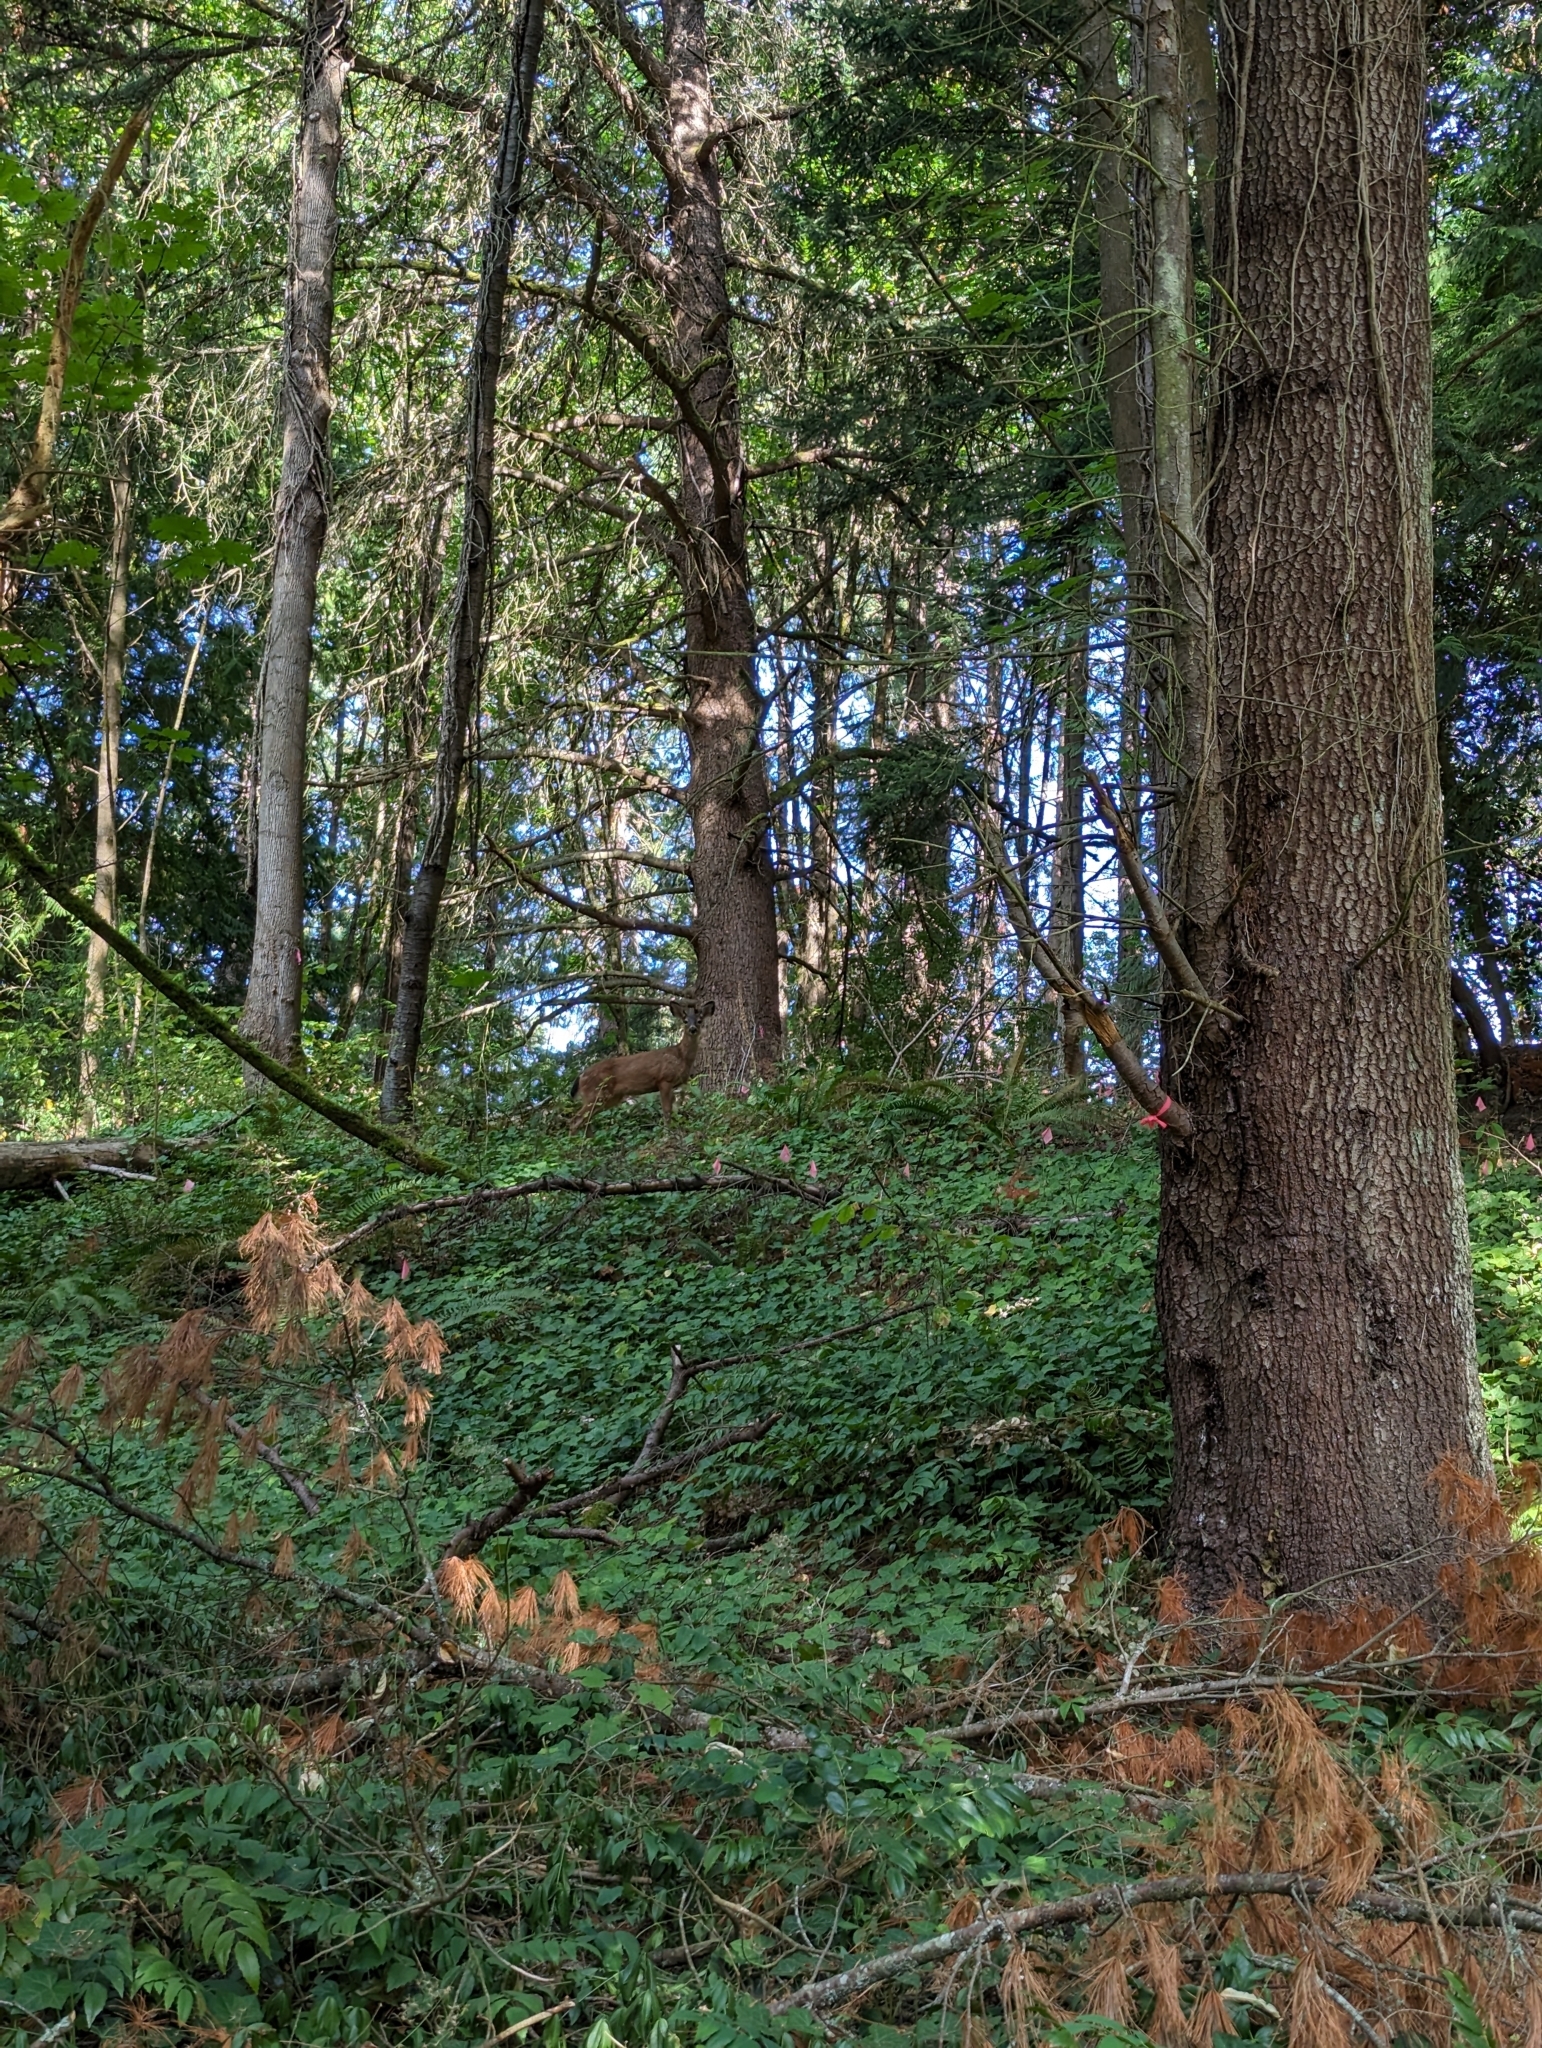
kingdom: Animalia
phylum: Chordata
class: Mammalia
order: Artiodactyla
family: Cervidae
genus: Odocoileus
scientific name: Odocoileus hemionus
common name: Mule deer
